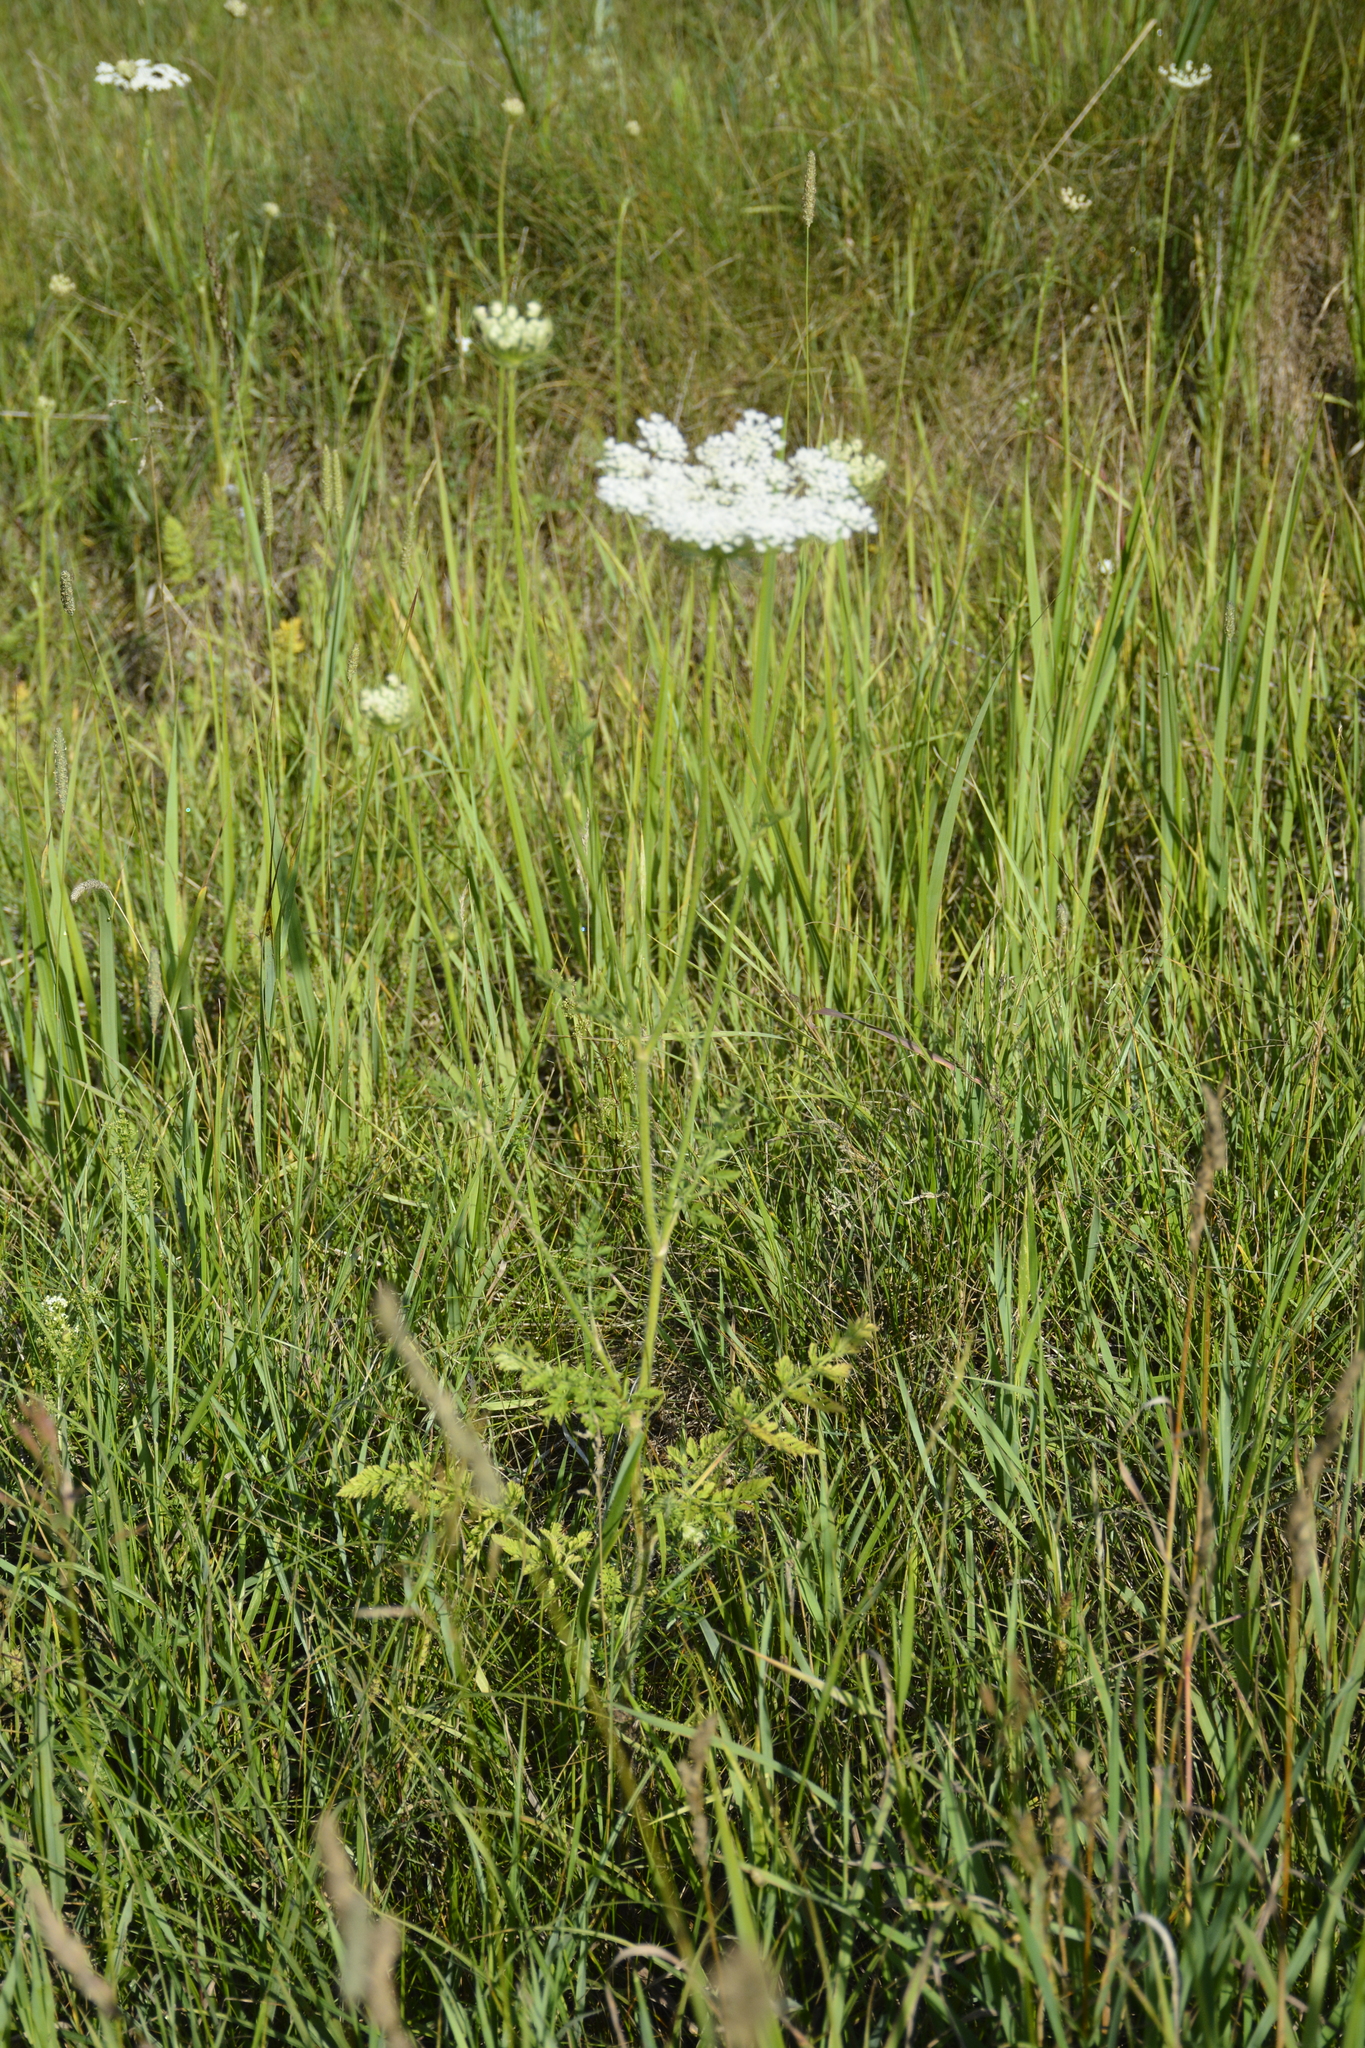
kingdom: Plantae
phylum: Tracheophyta
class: Magnoliopsida
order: Apiales
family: Apiaceae
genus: Daucus
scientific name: Daucus carota
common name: Wild carrot
